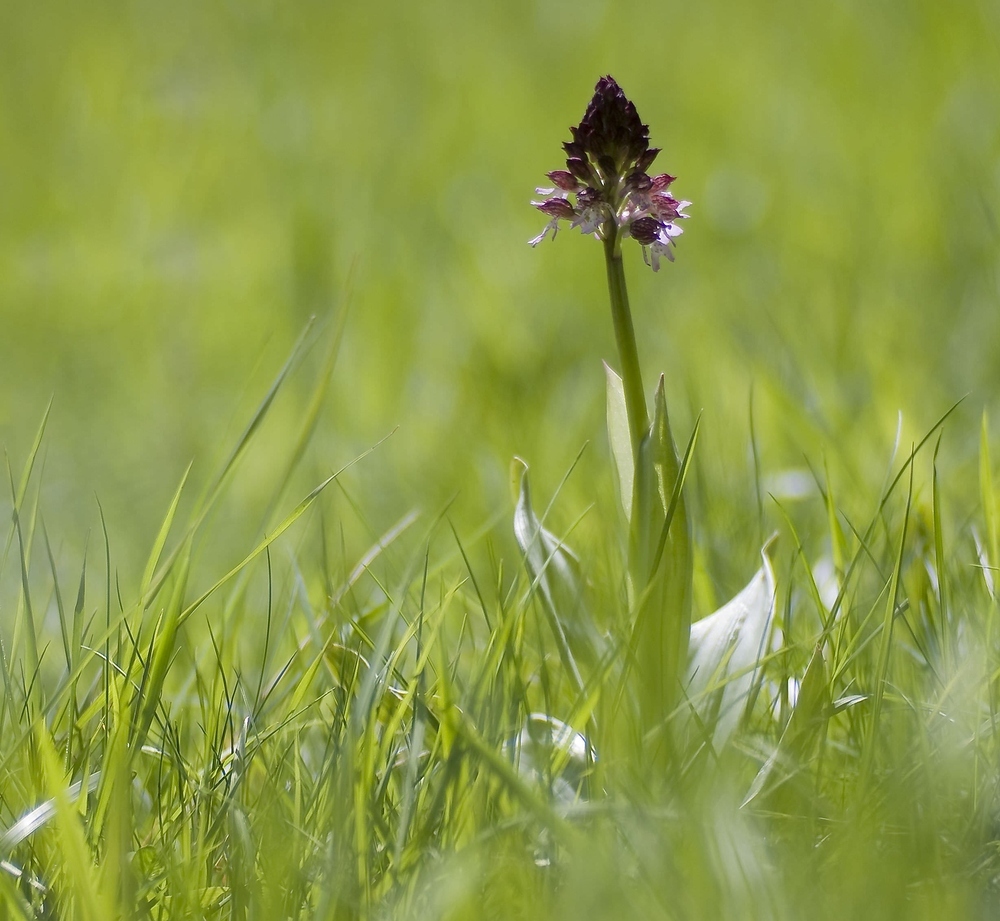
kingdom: Plantae
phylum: Tracheophyta
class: Liliopsida
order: Asparagales
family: Orchidaceae
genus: Orchis
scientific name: Orchis purpurea
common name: Lady orchid
